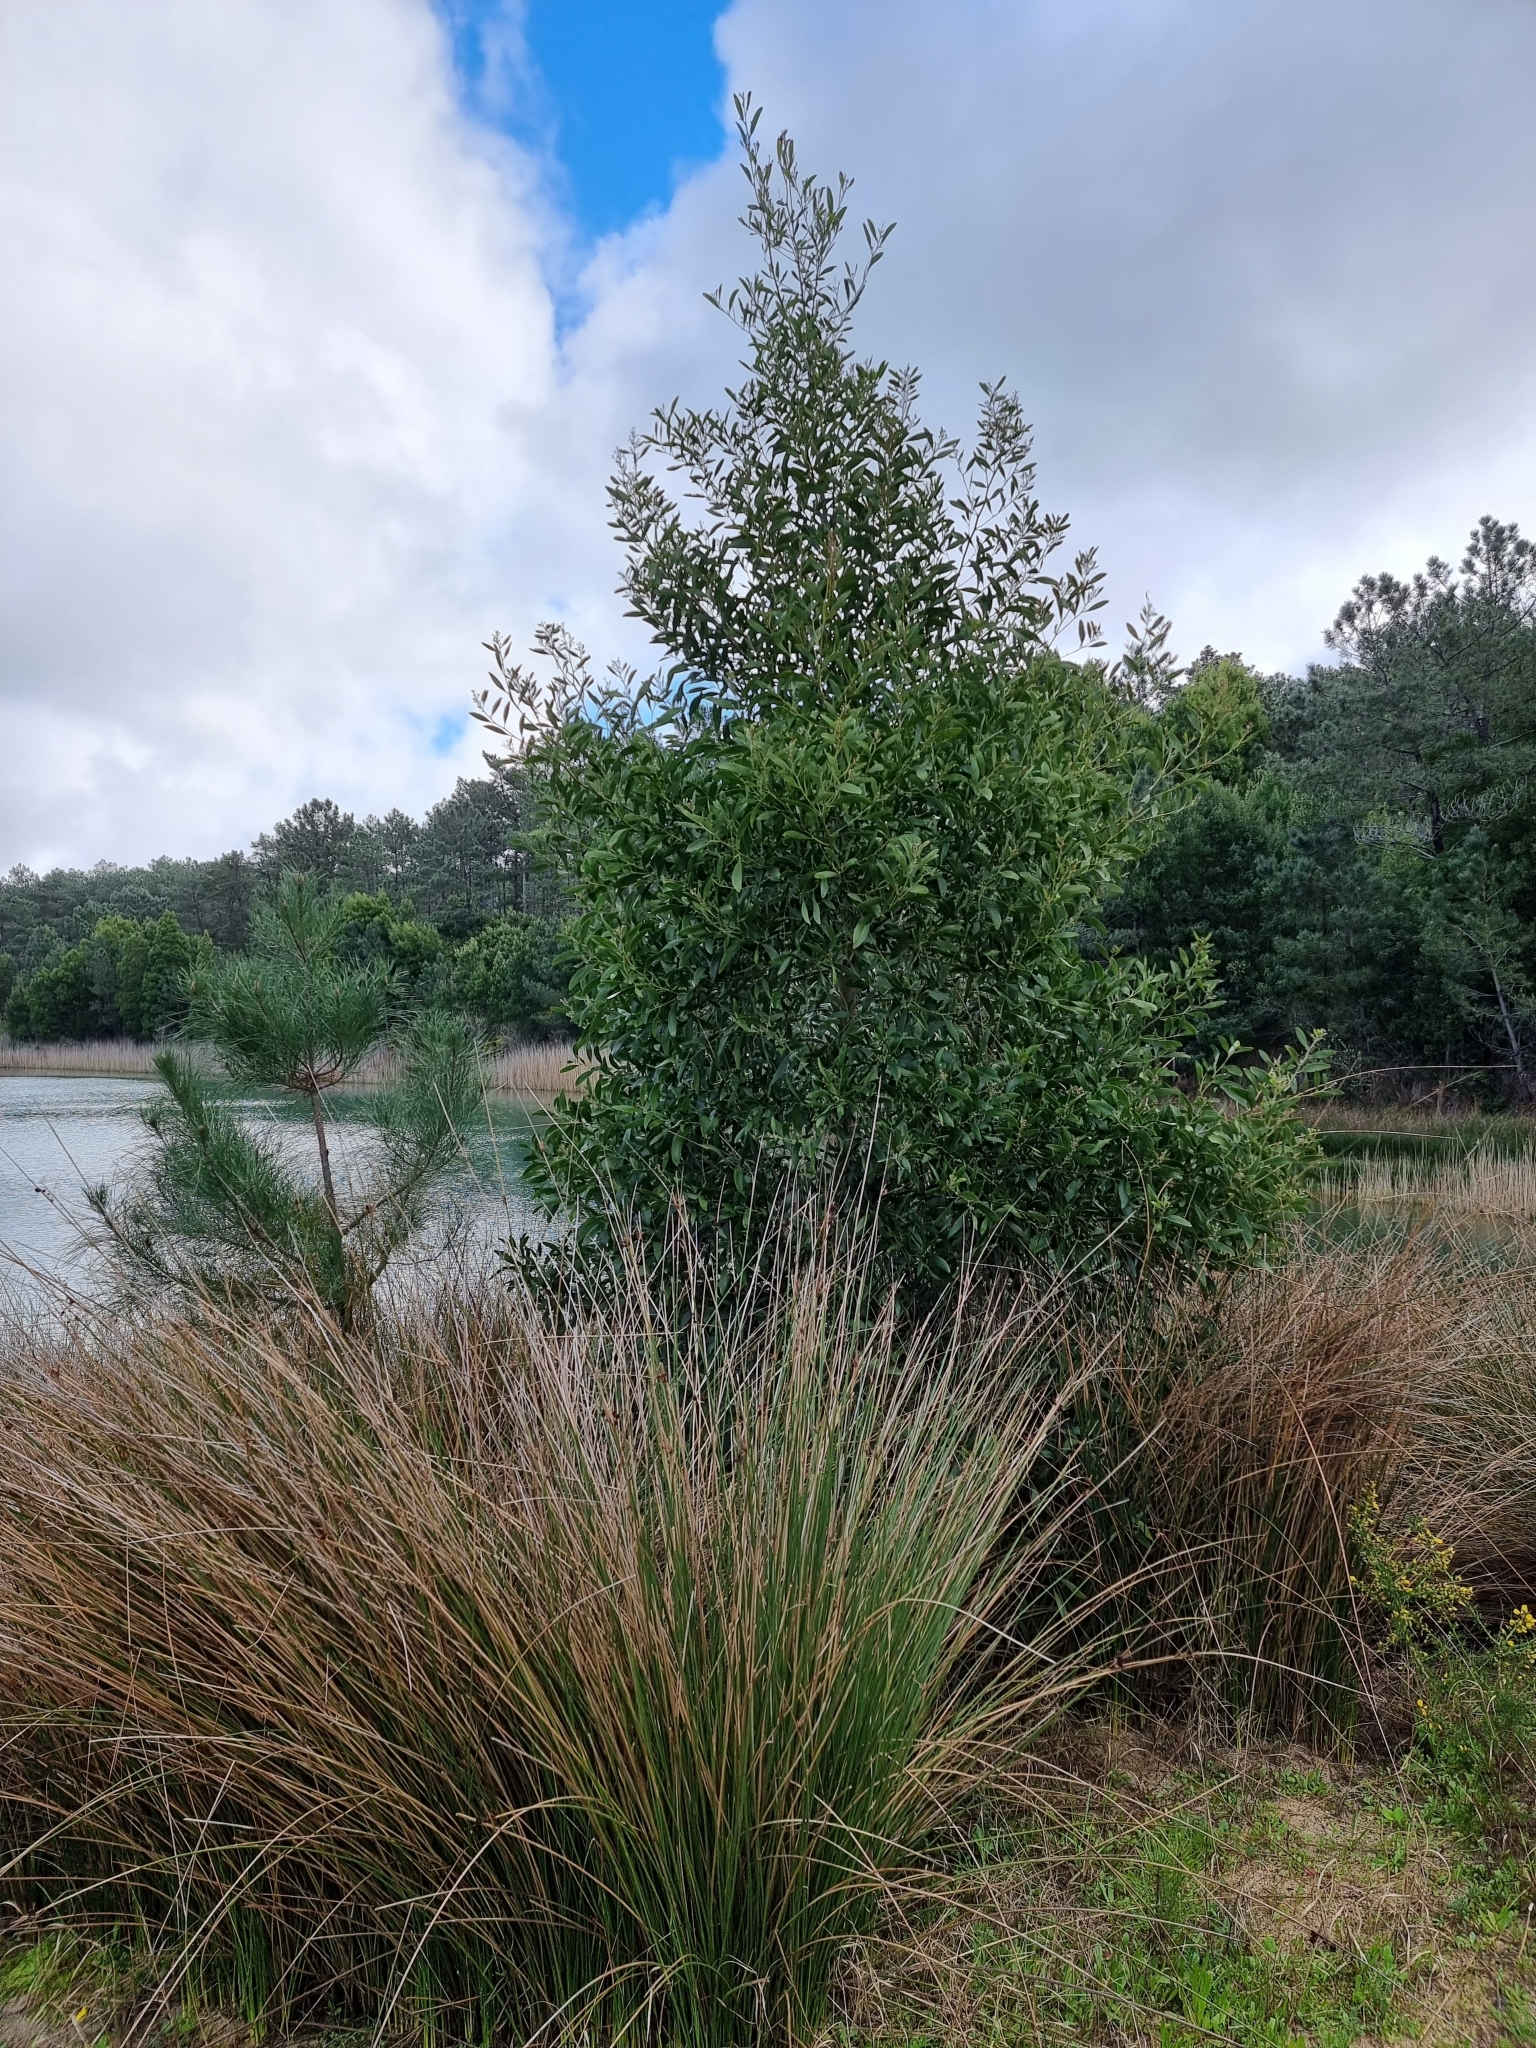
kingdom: Plantae
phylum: Tracheophyta
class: Magnoliopsida
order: Fabales
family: Fabaceae
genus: Acacia
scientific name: Acacia melanoxylon
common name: Blackwood
